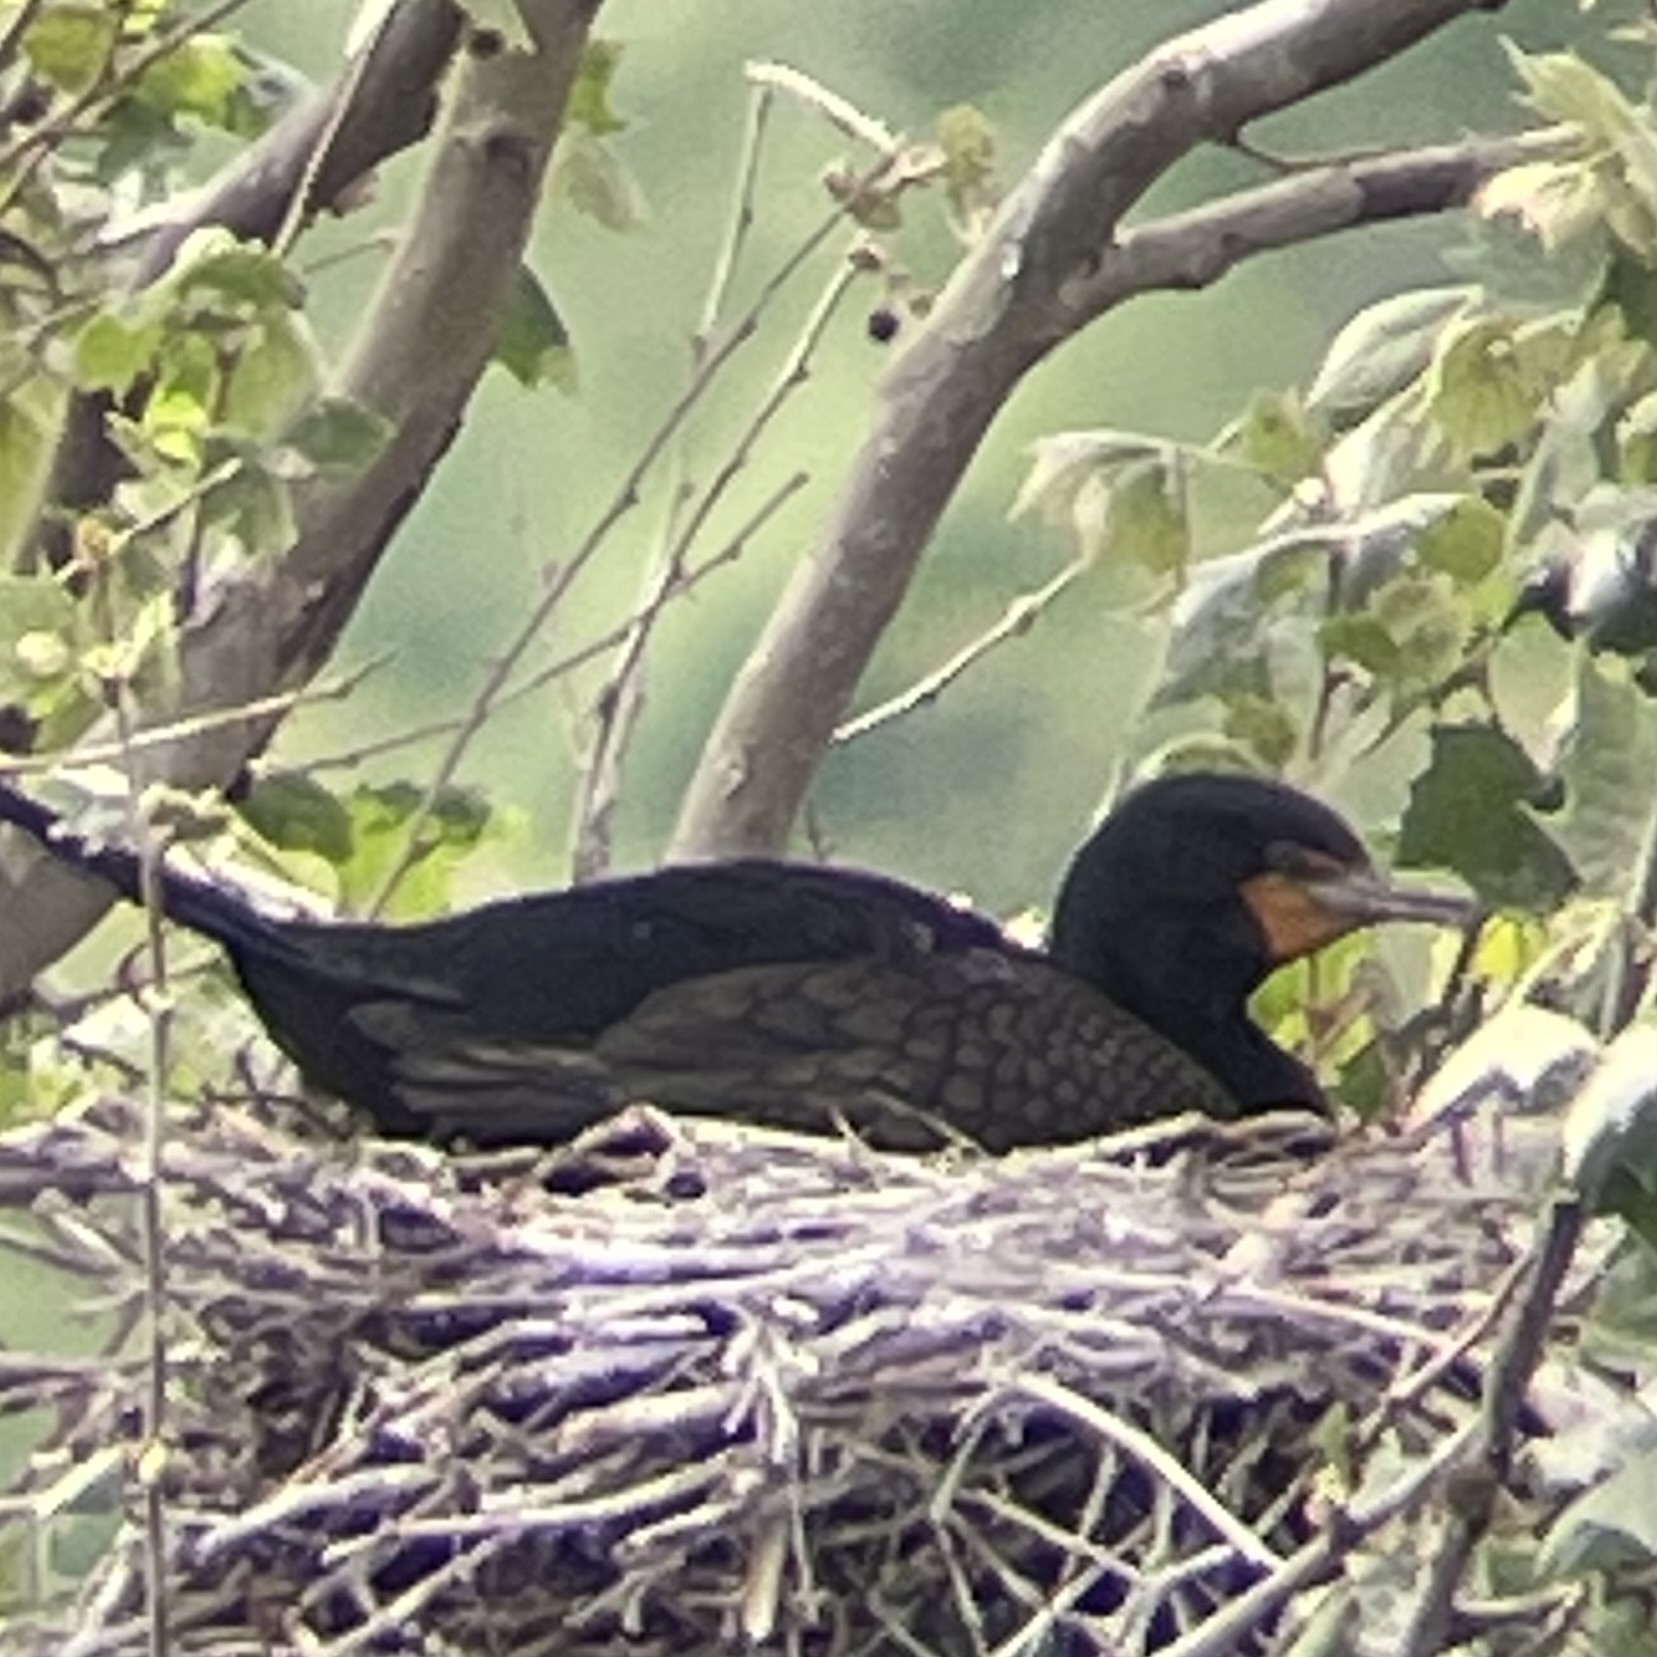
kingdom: Animalia
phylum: Chordata
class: Aves
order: Suliformes
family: Phalacrocoracidae
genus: Phalacrocorax
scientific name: Phalacrocorax auritus
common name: Double-crested cormorant
